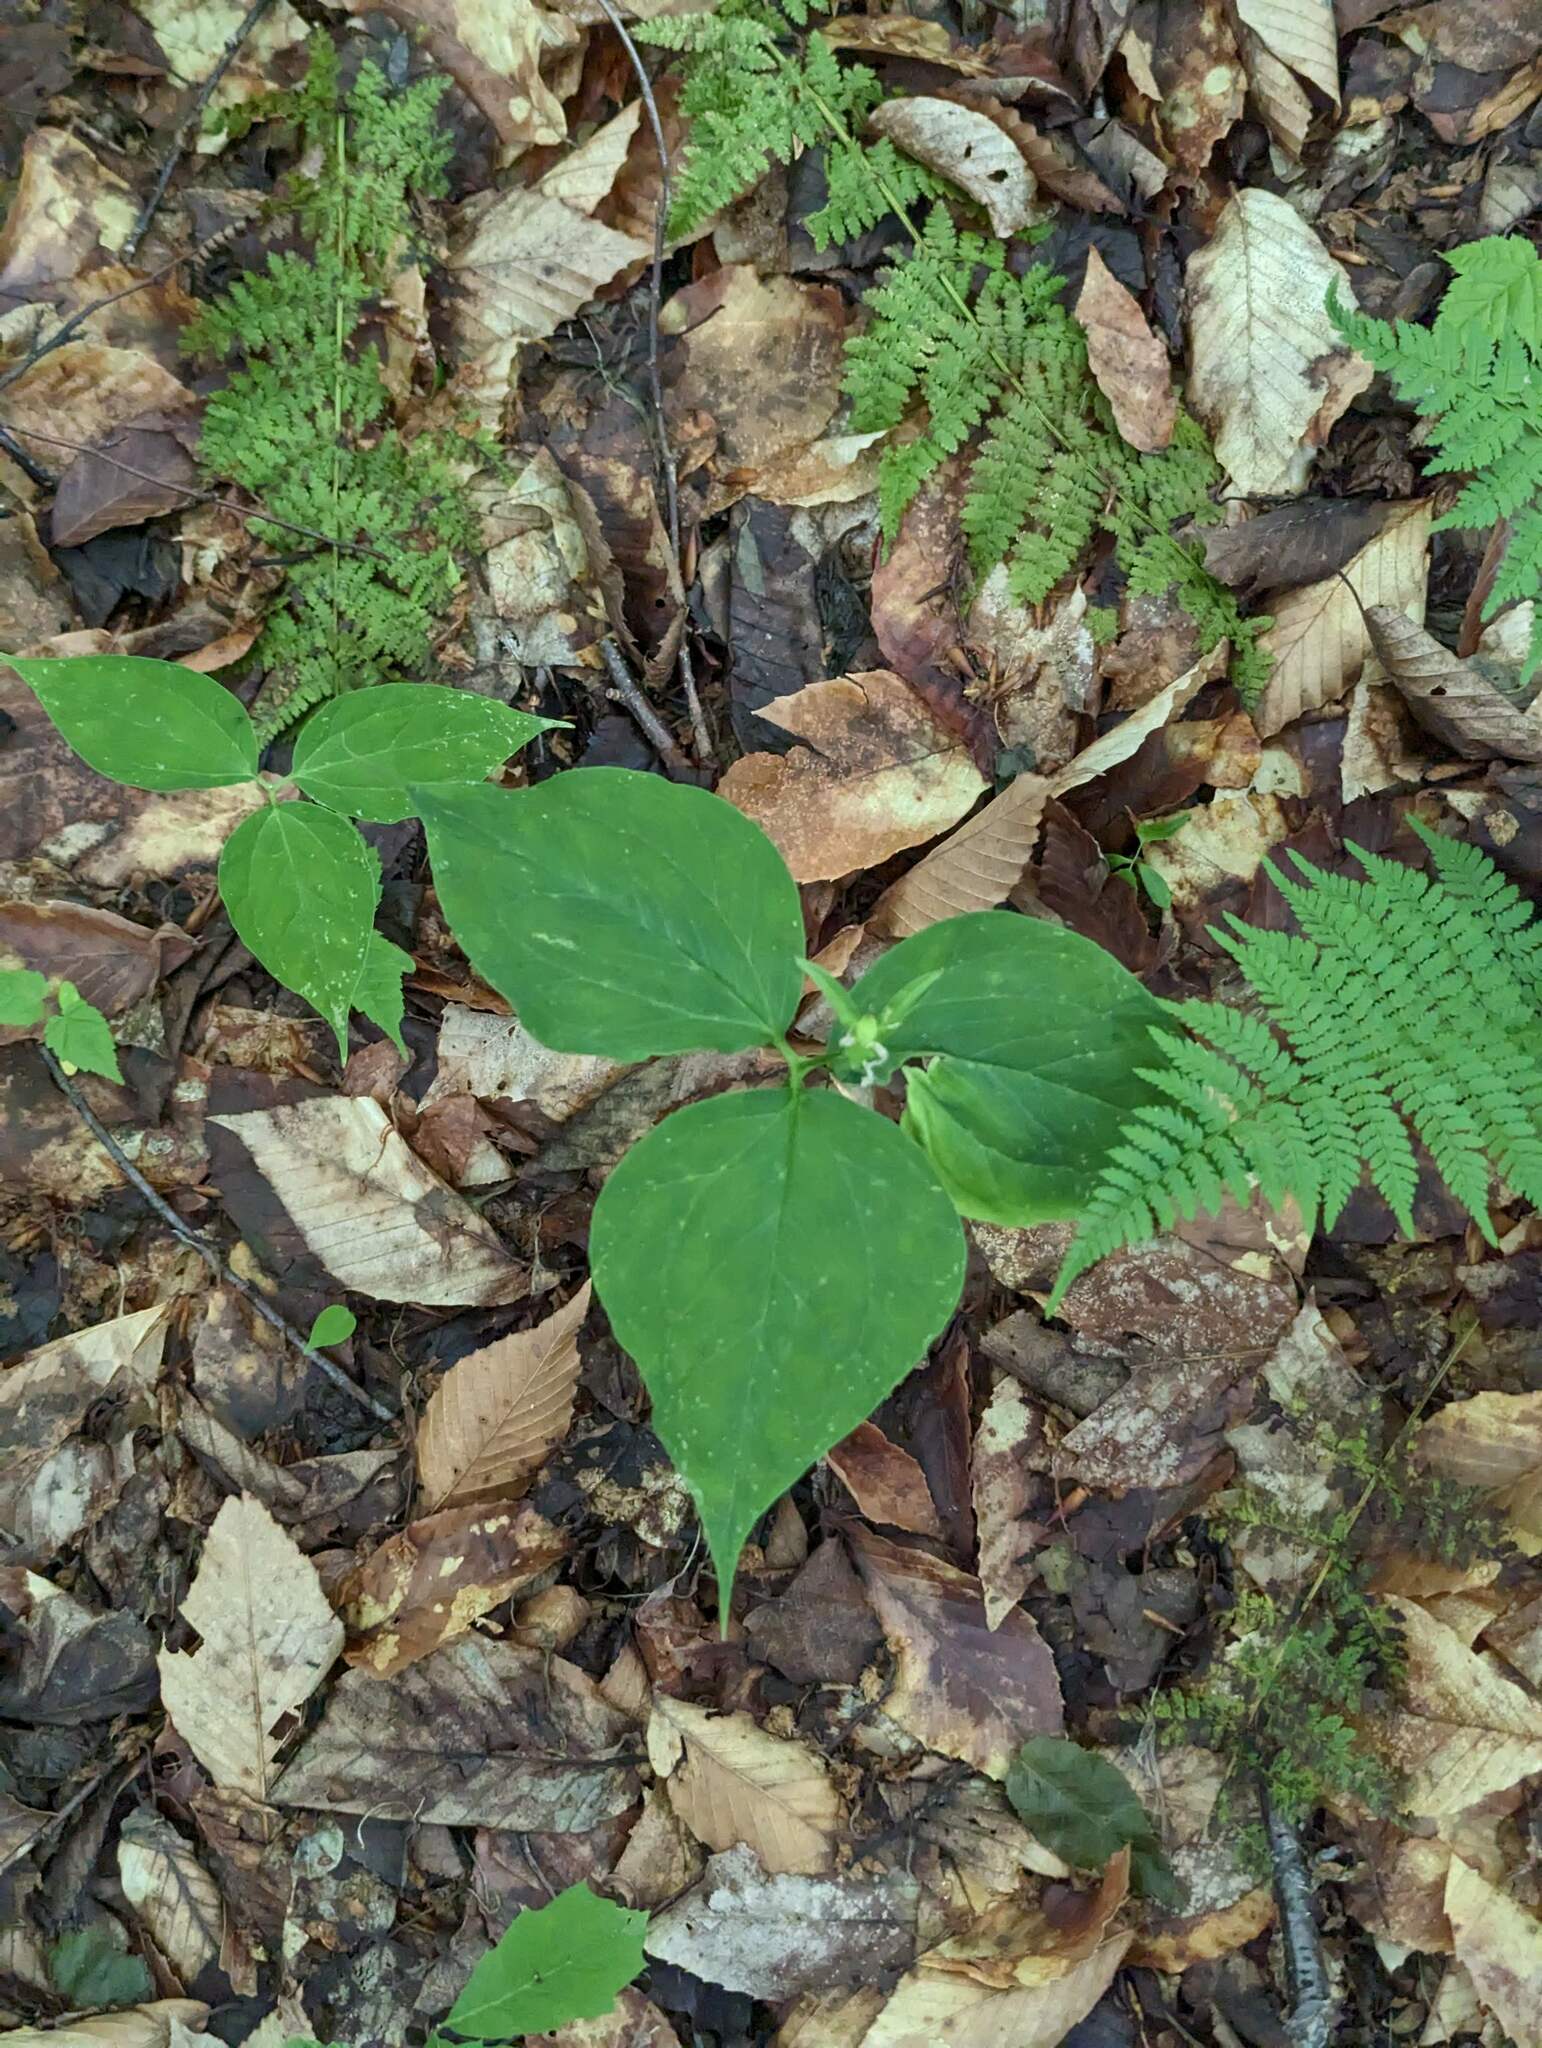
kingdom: Plantae
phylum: Tracheophyta
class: Liliopsida
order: Liliales
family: Melanthiaceae
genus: Trillium
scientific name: Trillium undulatum
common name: Paint trillium
